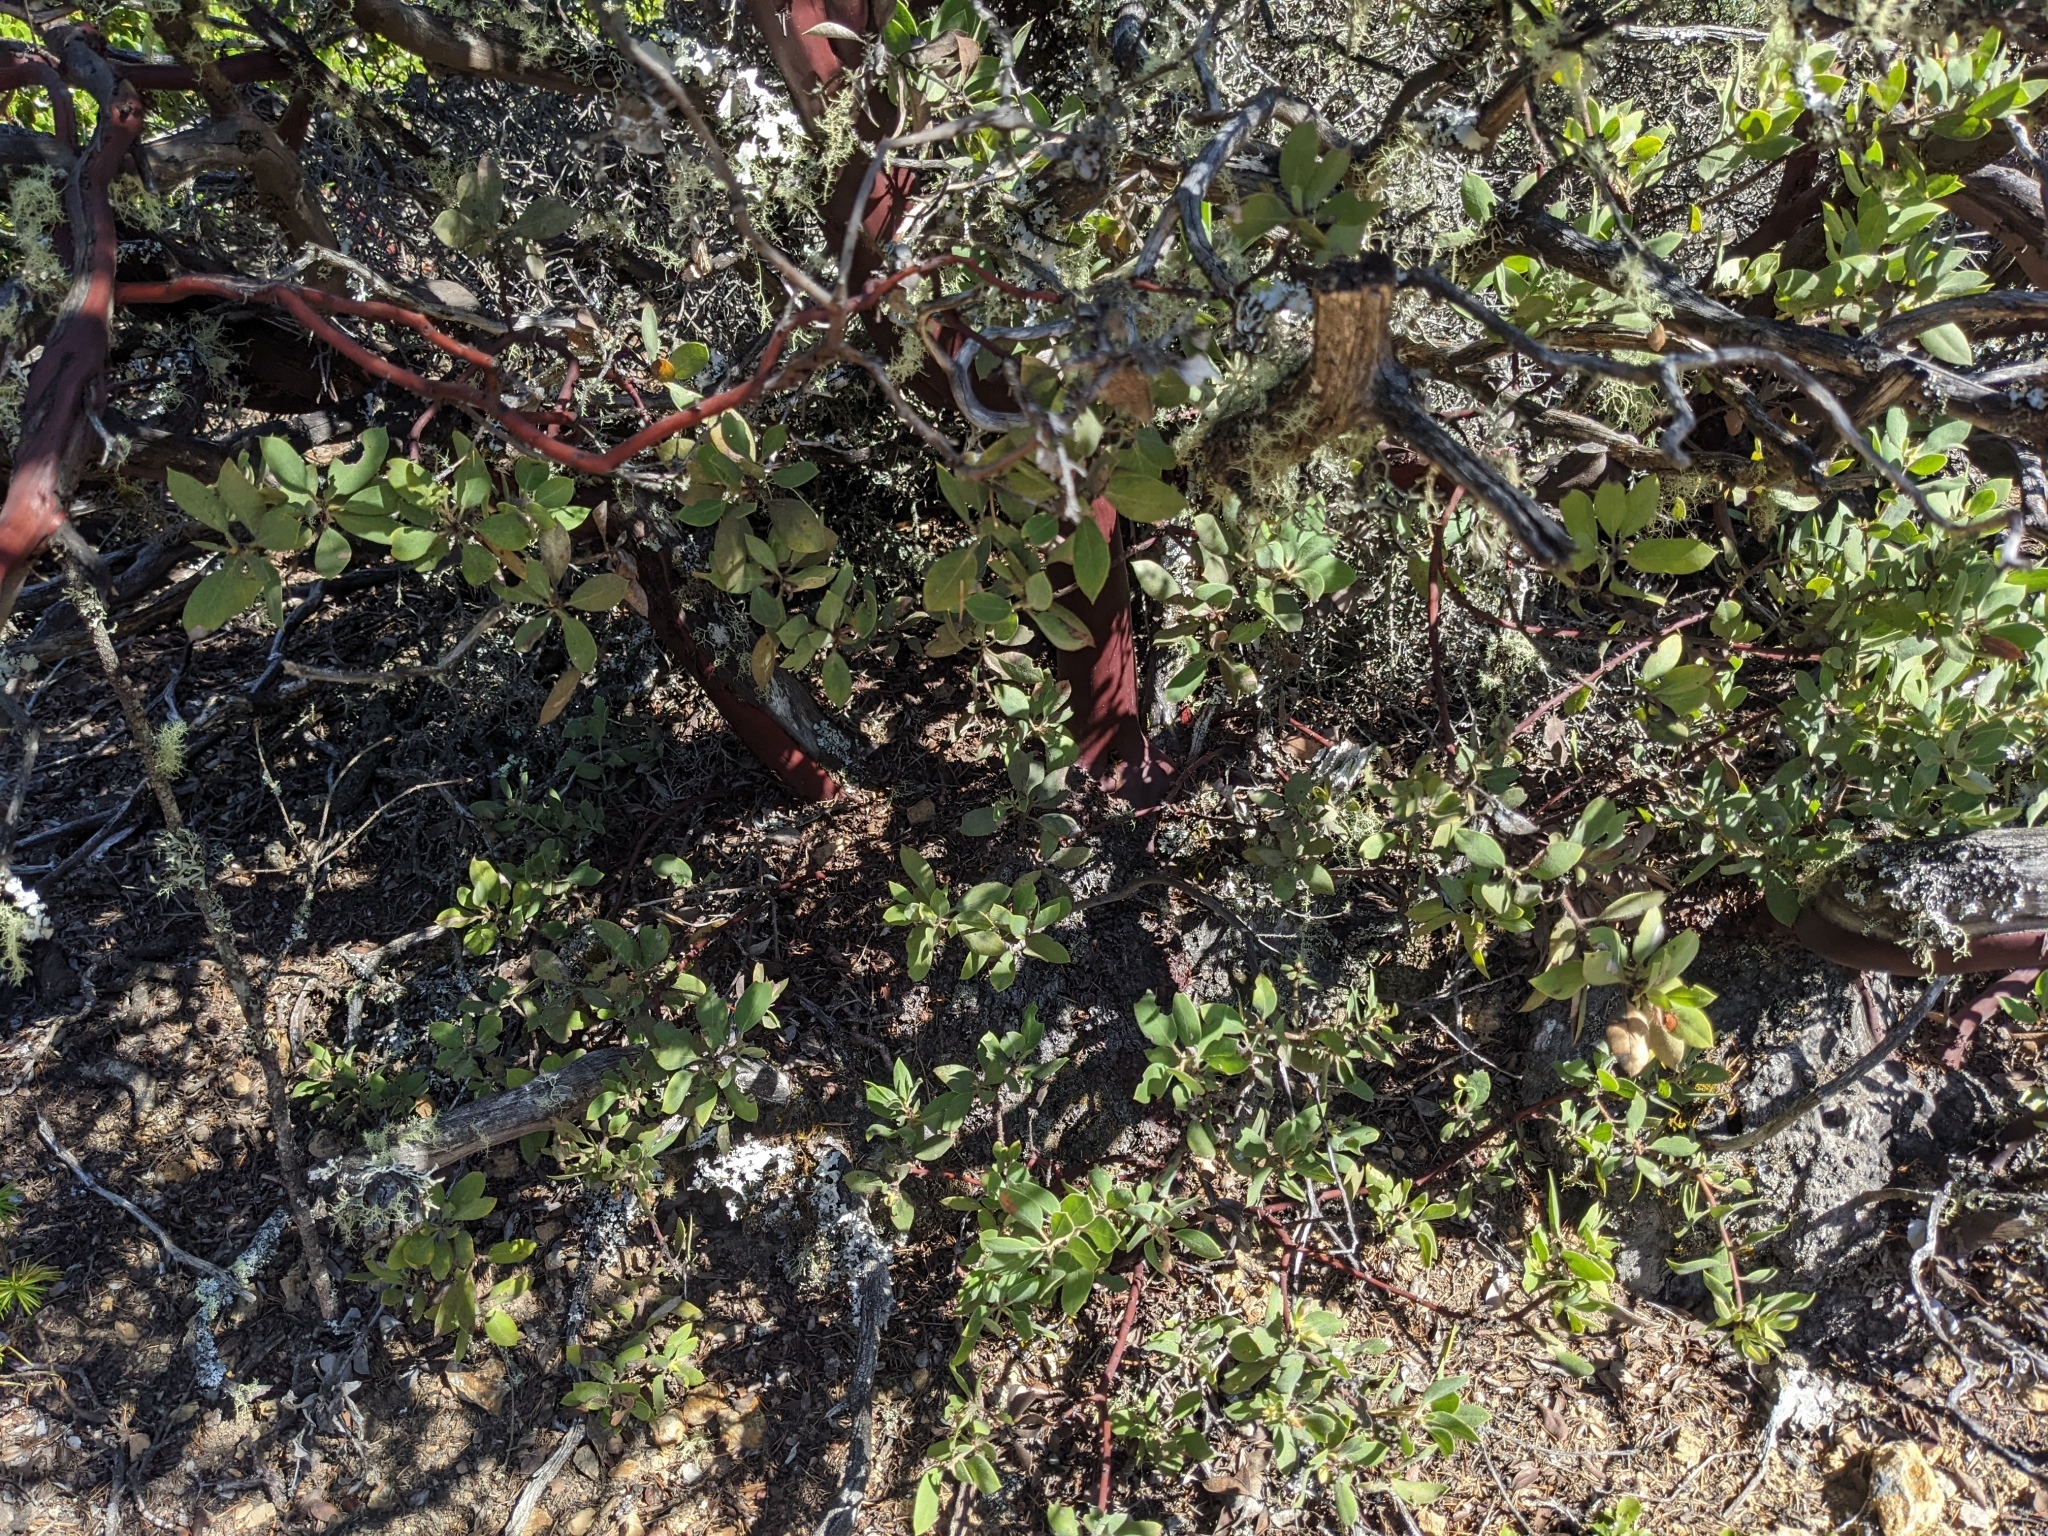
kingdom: Plantae
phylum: Tracheophyta
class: Magnoliopsida
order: Ericales
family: Ericaceae
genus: Arctostaphylos
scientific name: Arctostaphylos glandulosa
